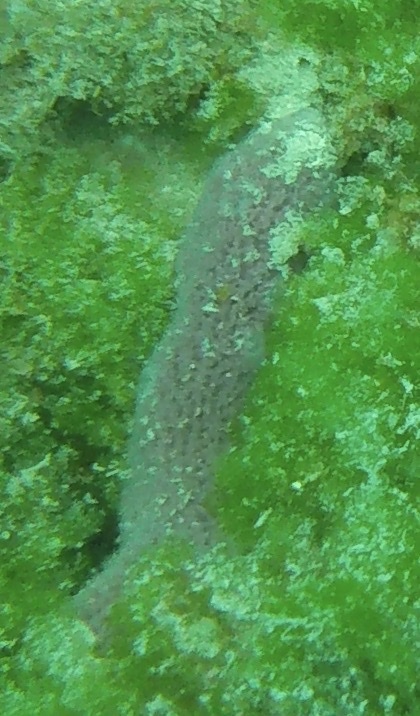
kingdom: Animalia
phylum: Porifera
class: Demospongiae
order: Haplosclerida
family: Niphatidae
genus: Niphates
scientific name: Niphates erecta
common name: Lavender rope sponge
